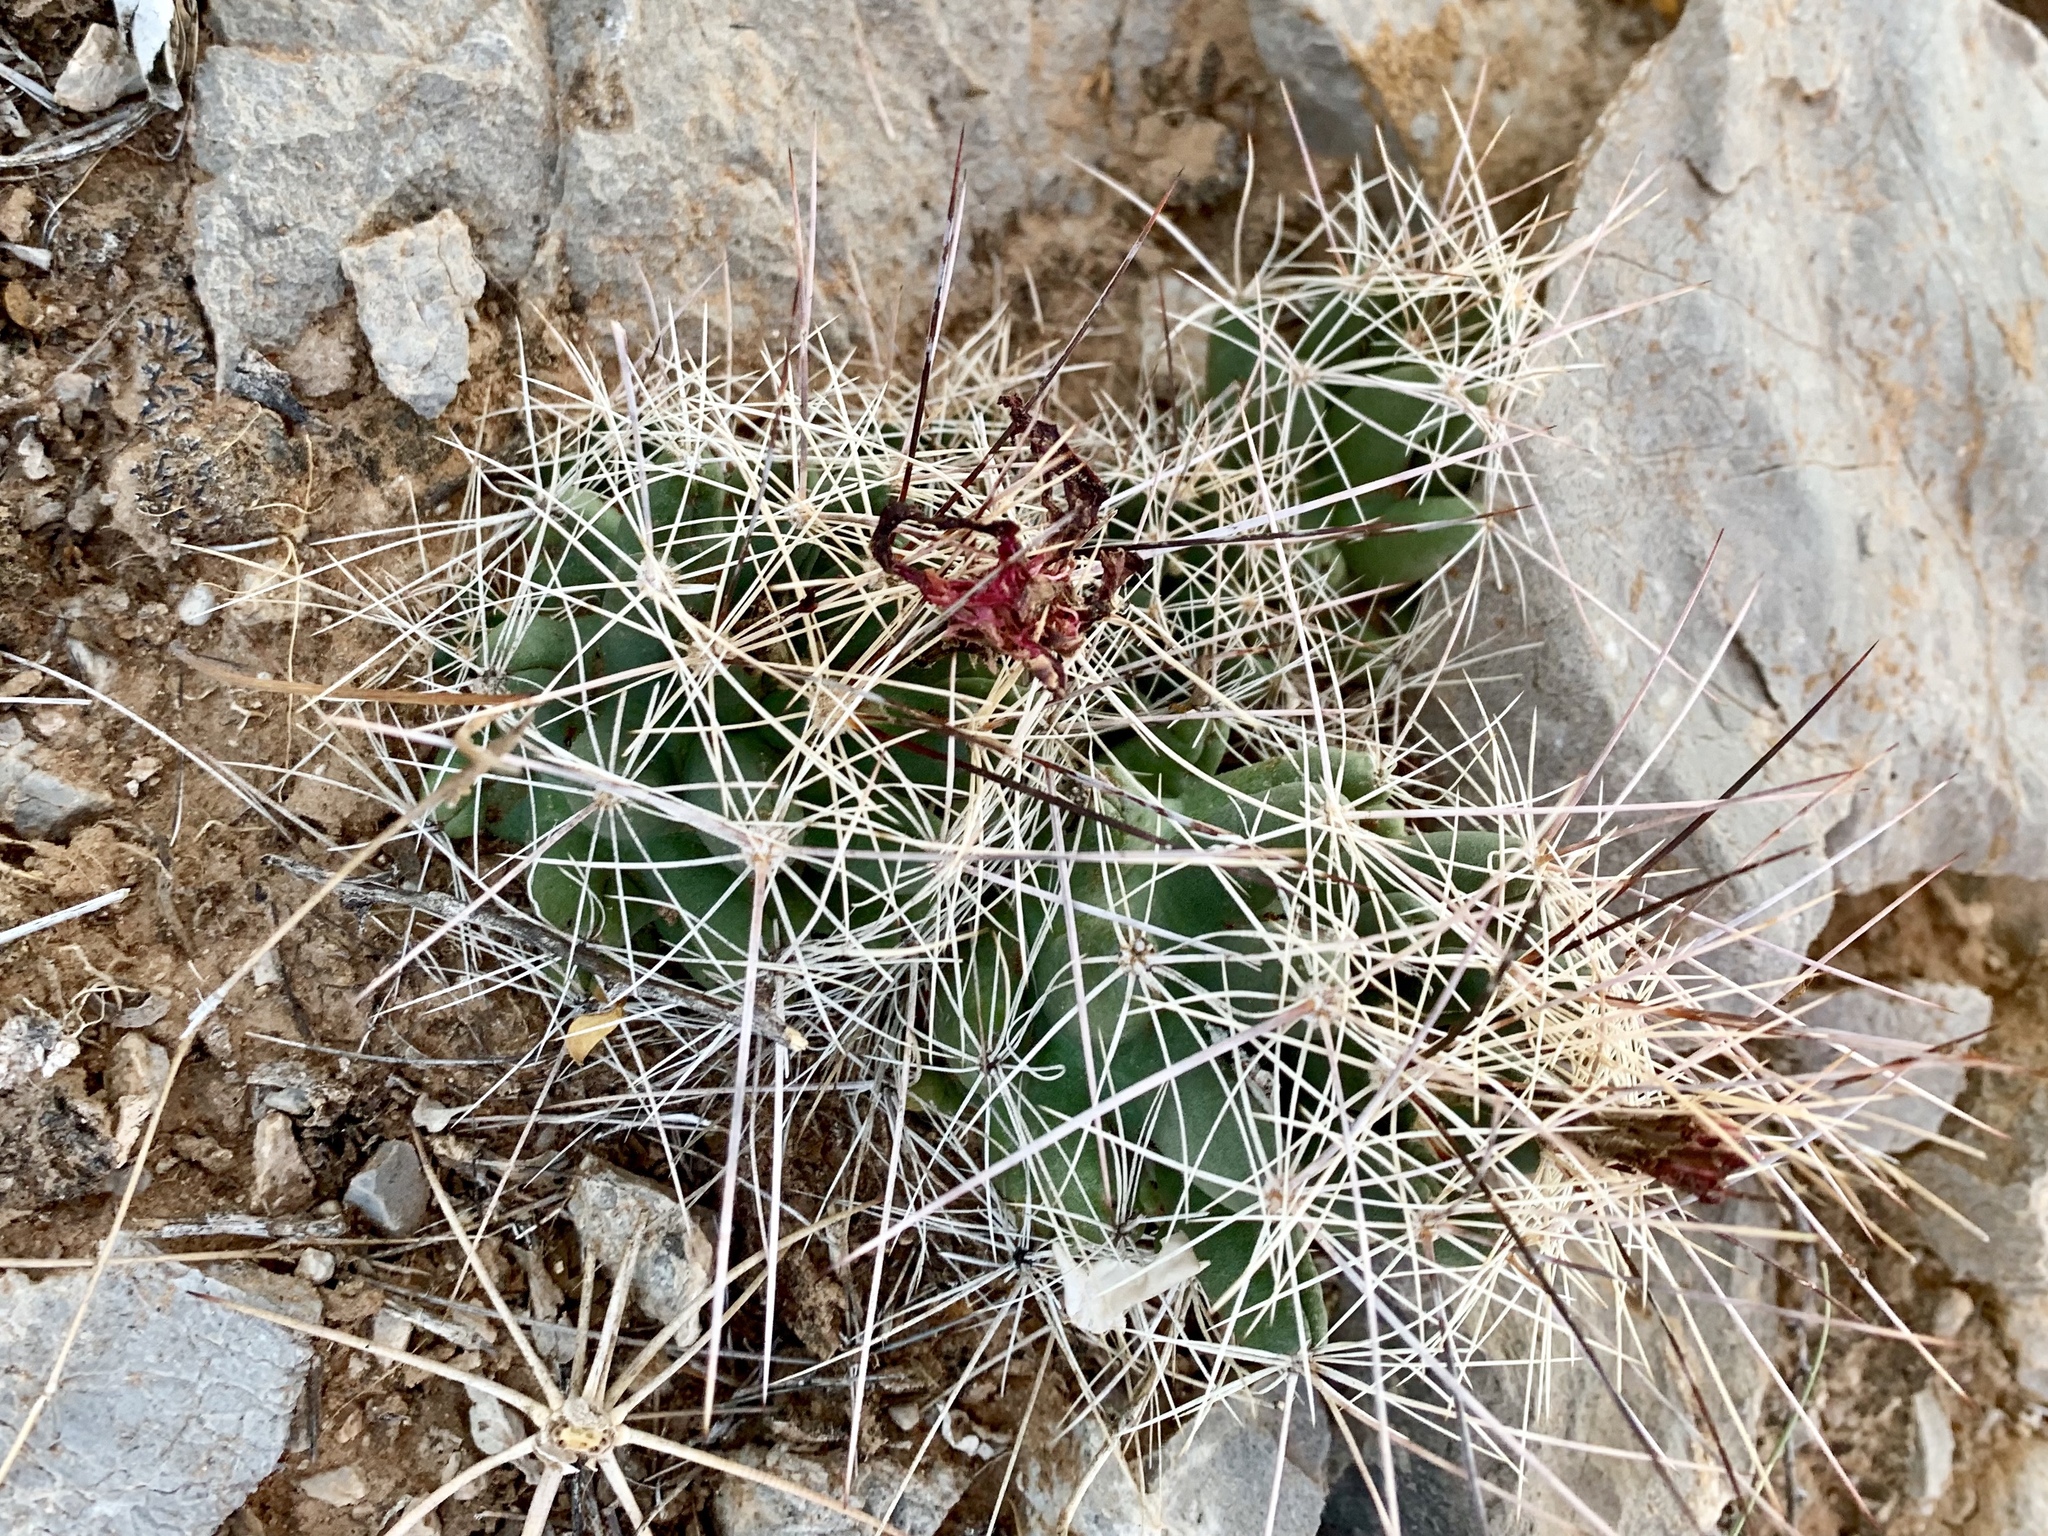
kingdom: Plantae
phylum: Tracheophyta
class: Magnoliopsida
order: Caryophyllales
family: Cactaceae
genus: Coryphantha
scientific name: Coryphantha macromeris
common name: Nipple beehive cactus
